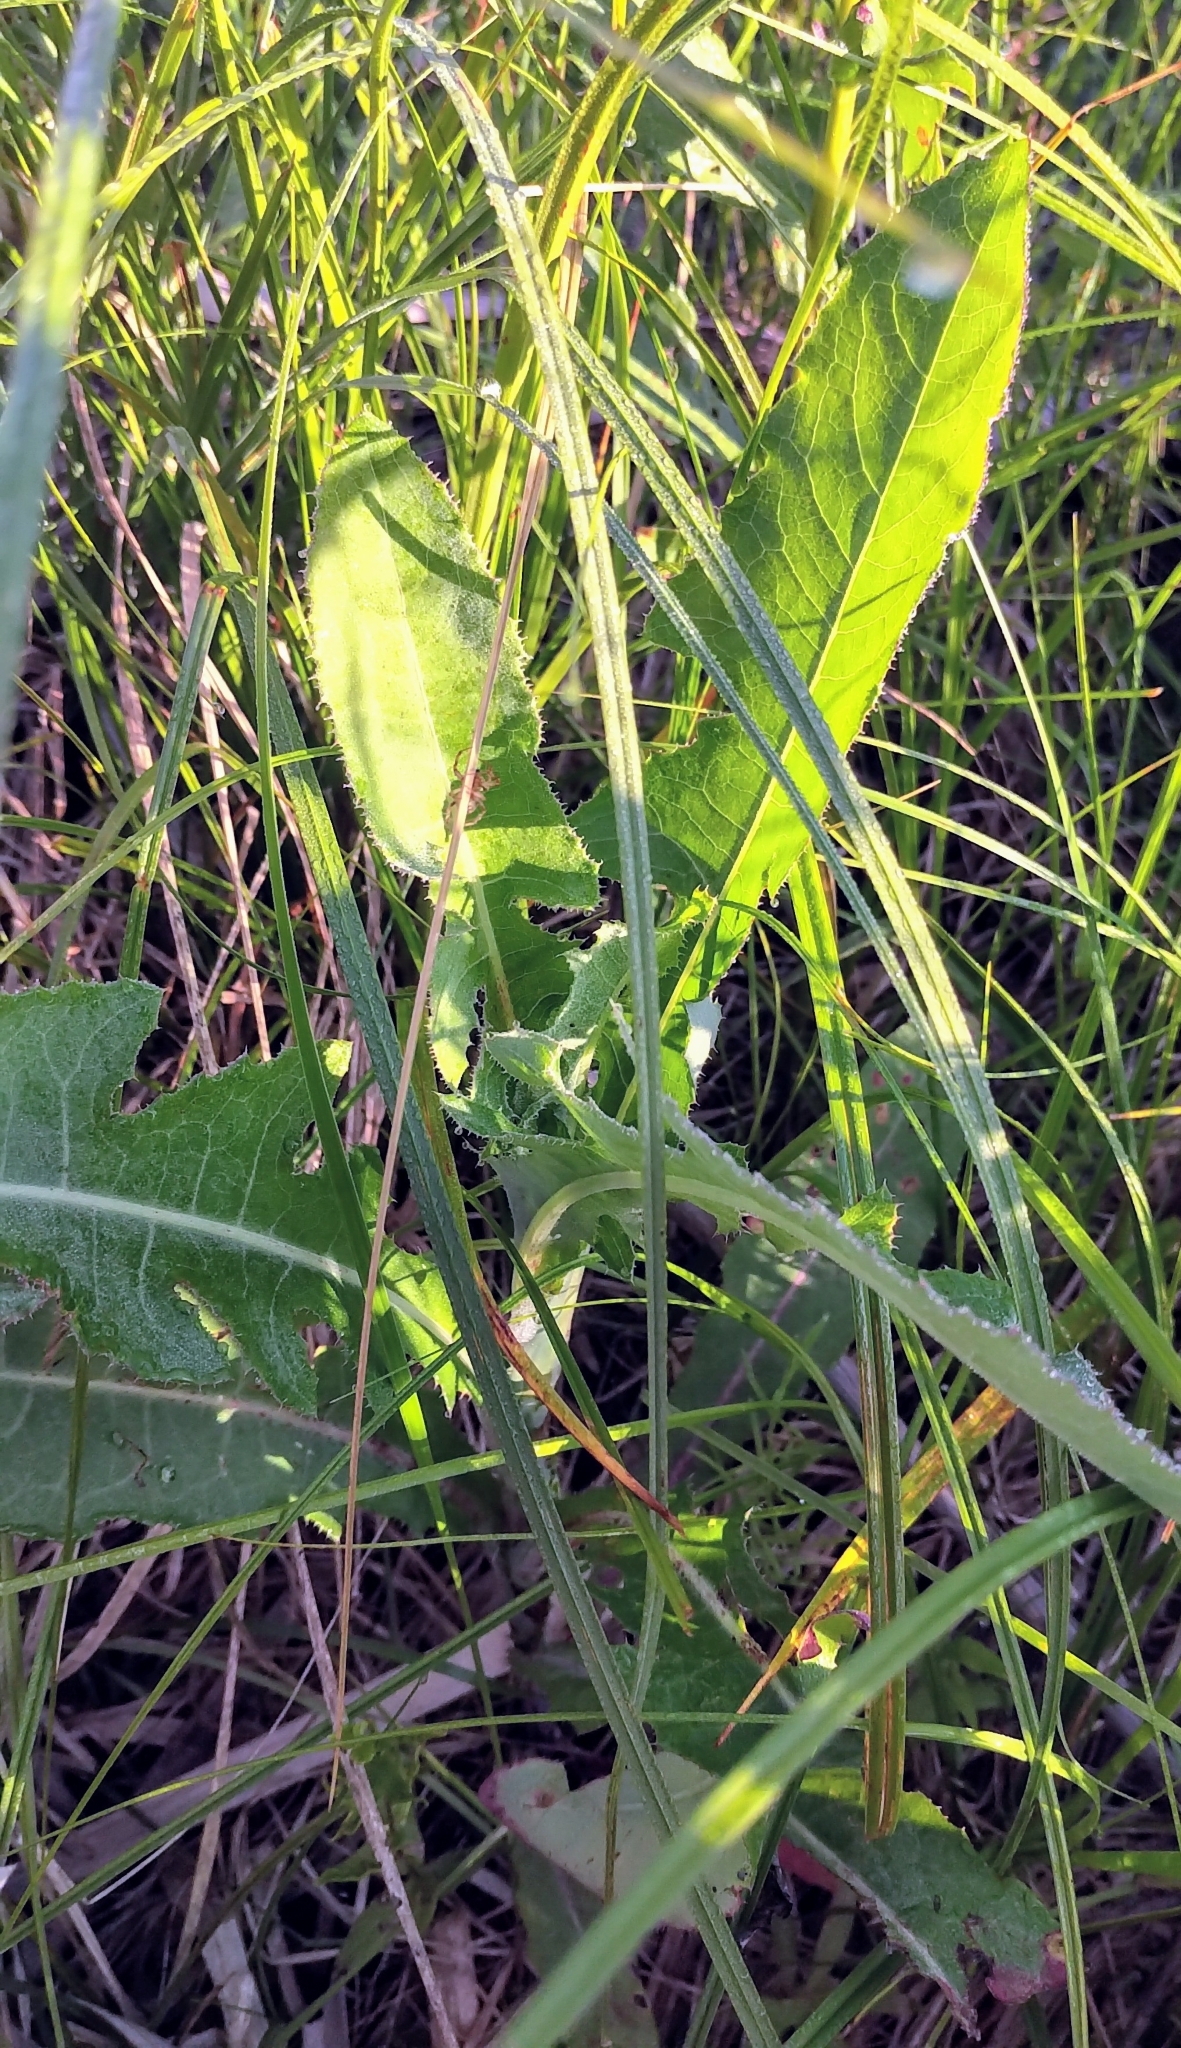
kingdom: Plantae
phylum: Tracheophyta
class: Magnoliopsida
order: Asterales
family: Asteraceae
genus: Sonchus
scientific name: Sonchus arvensis
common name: Perennial sow-thistle
